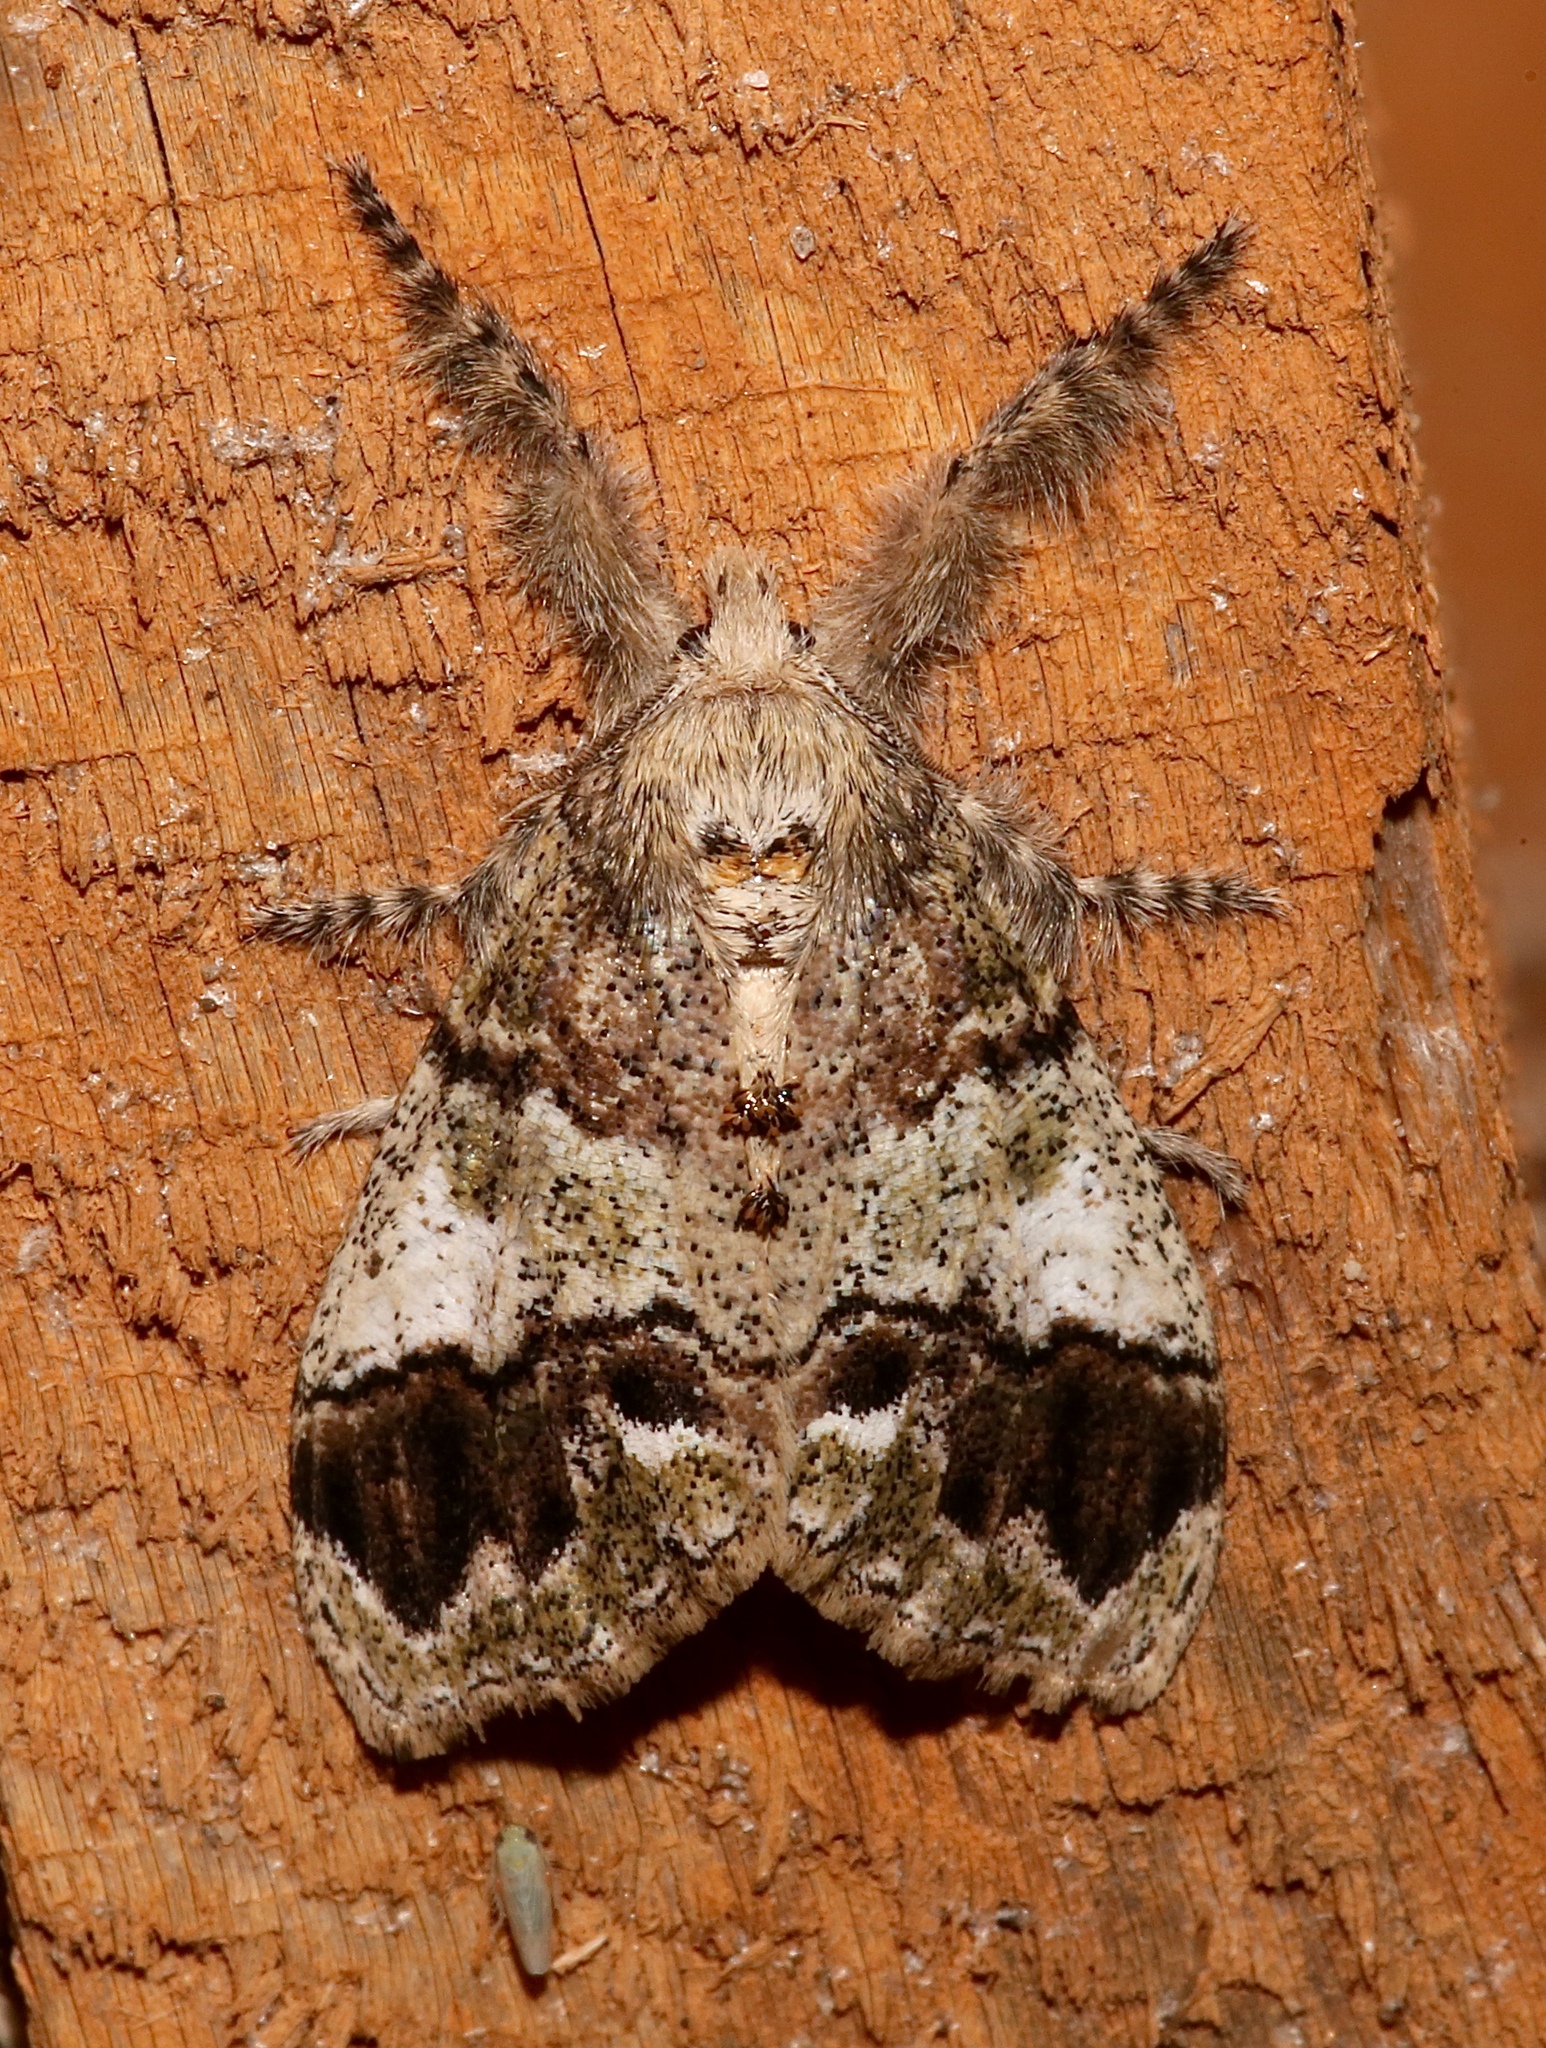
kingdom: Animalia
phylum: Arthropoda
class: Insecta
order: Lepidoptera
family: Erebidae
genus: Dasychira
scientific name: Dasychira basiflava
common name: Yellow-based tussock moth
